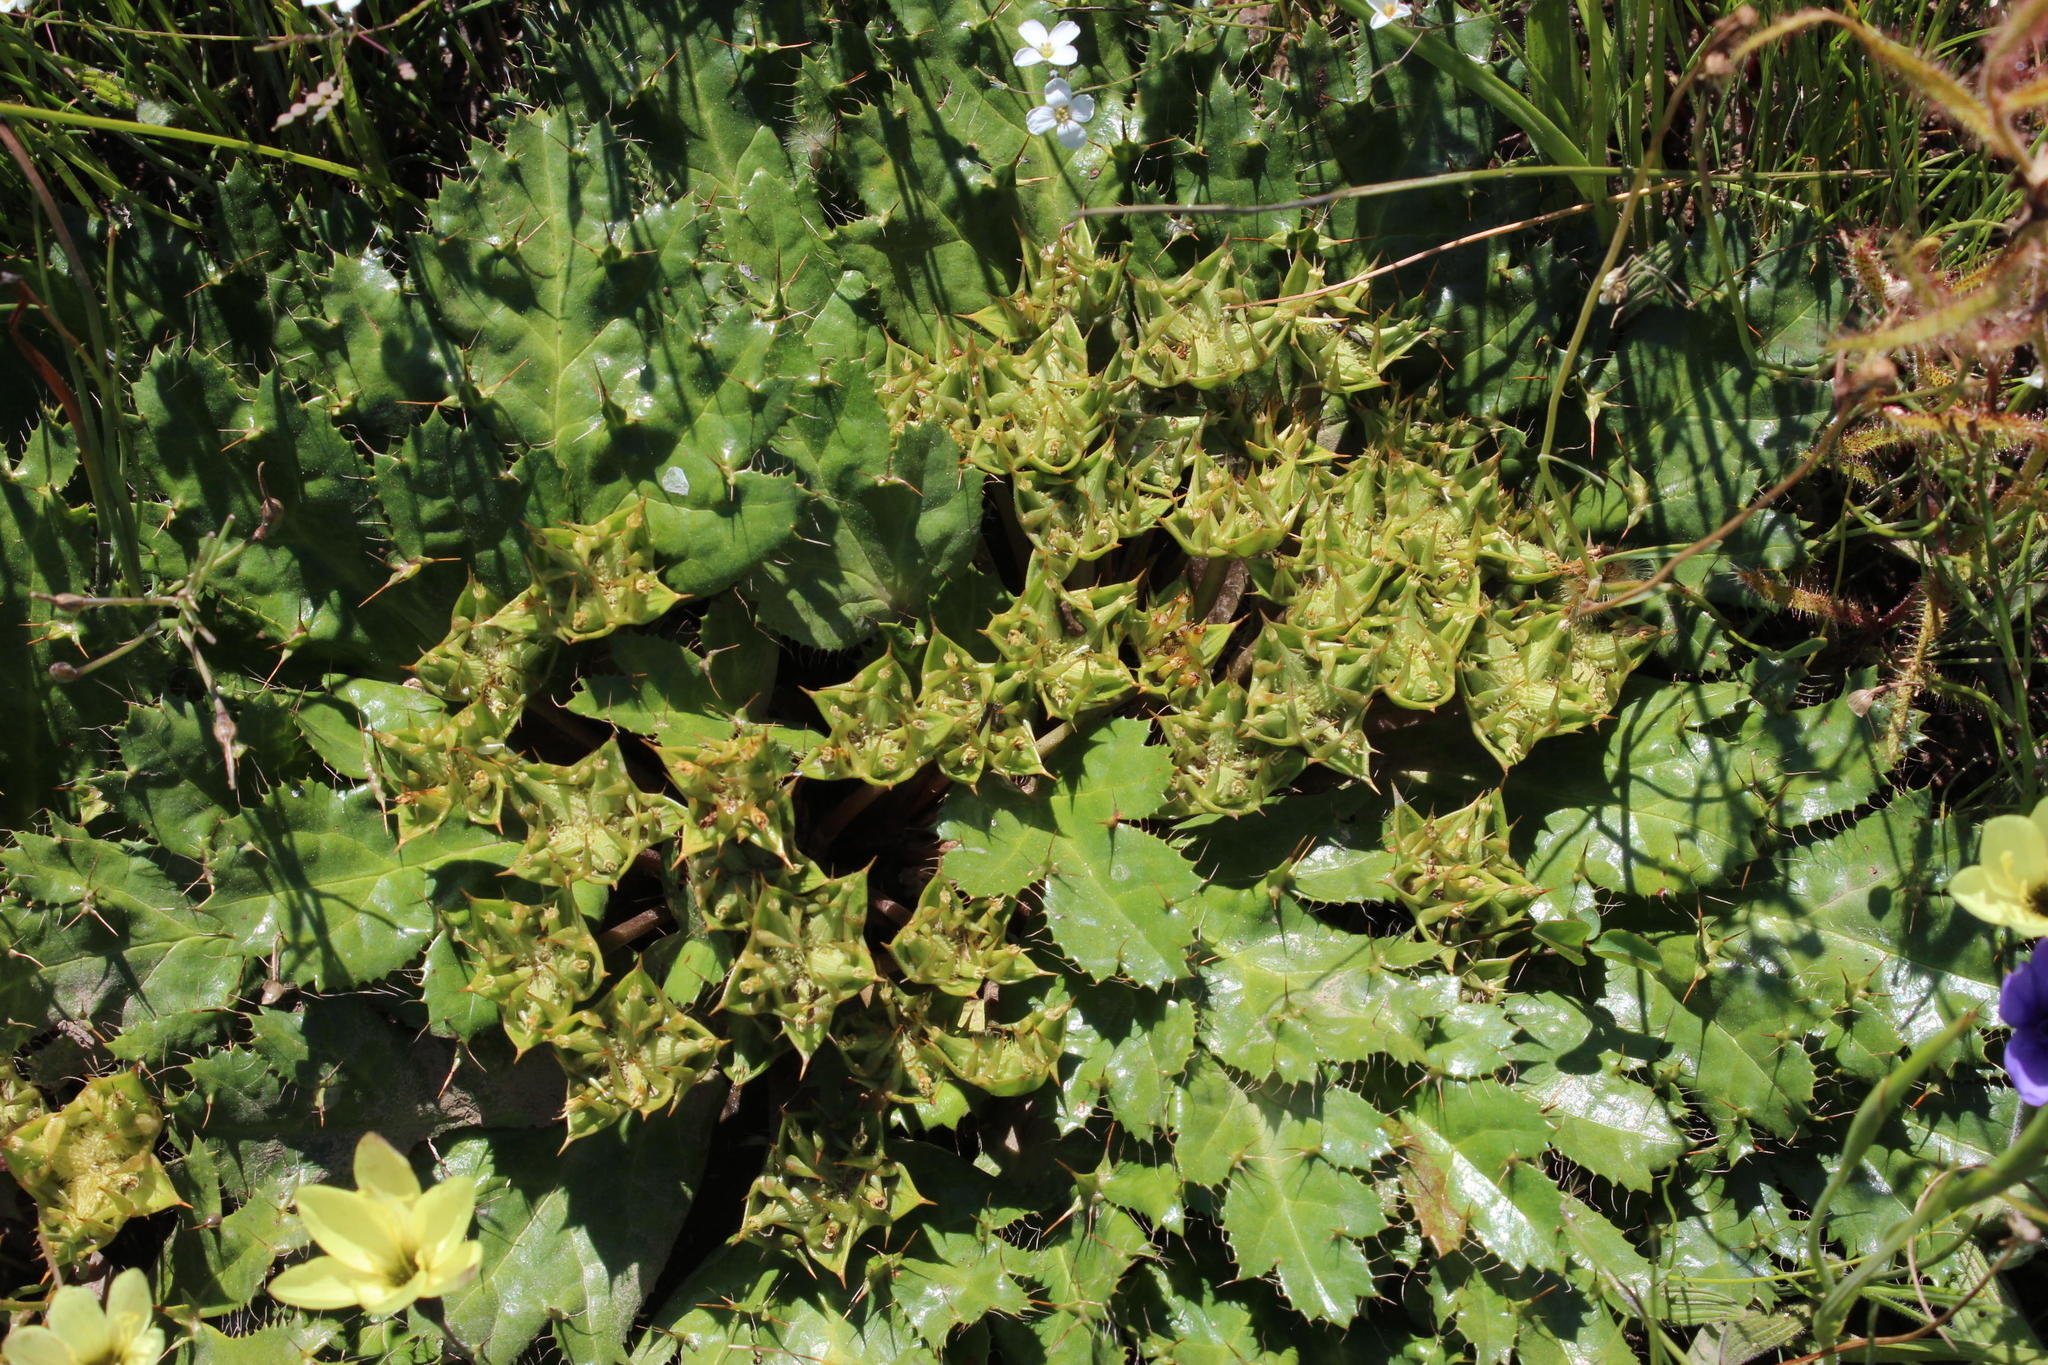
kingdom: Plantae
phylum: Tracheophyta
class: Magnoliopsida
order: Apiales
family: Apiaceae
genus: Arctopus
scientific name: Arctopus echinatus
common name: Platdoring
